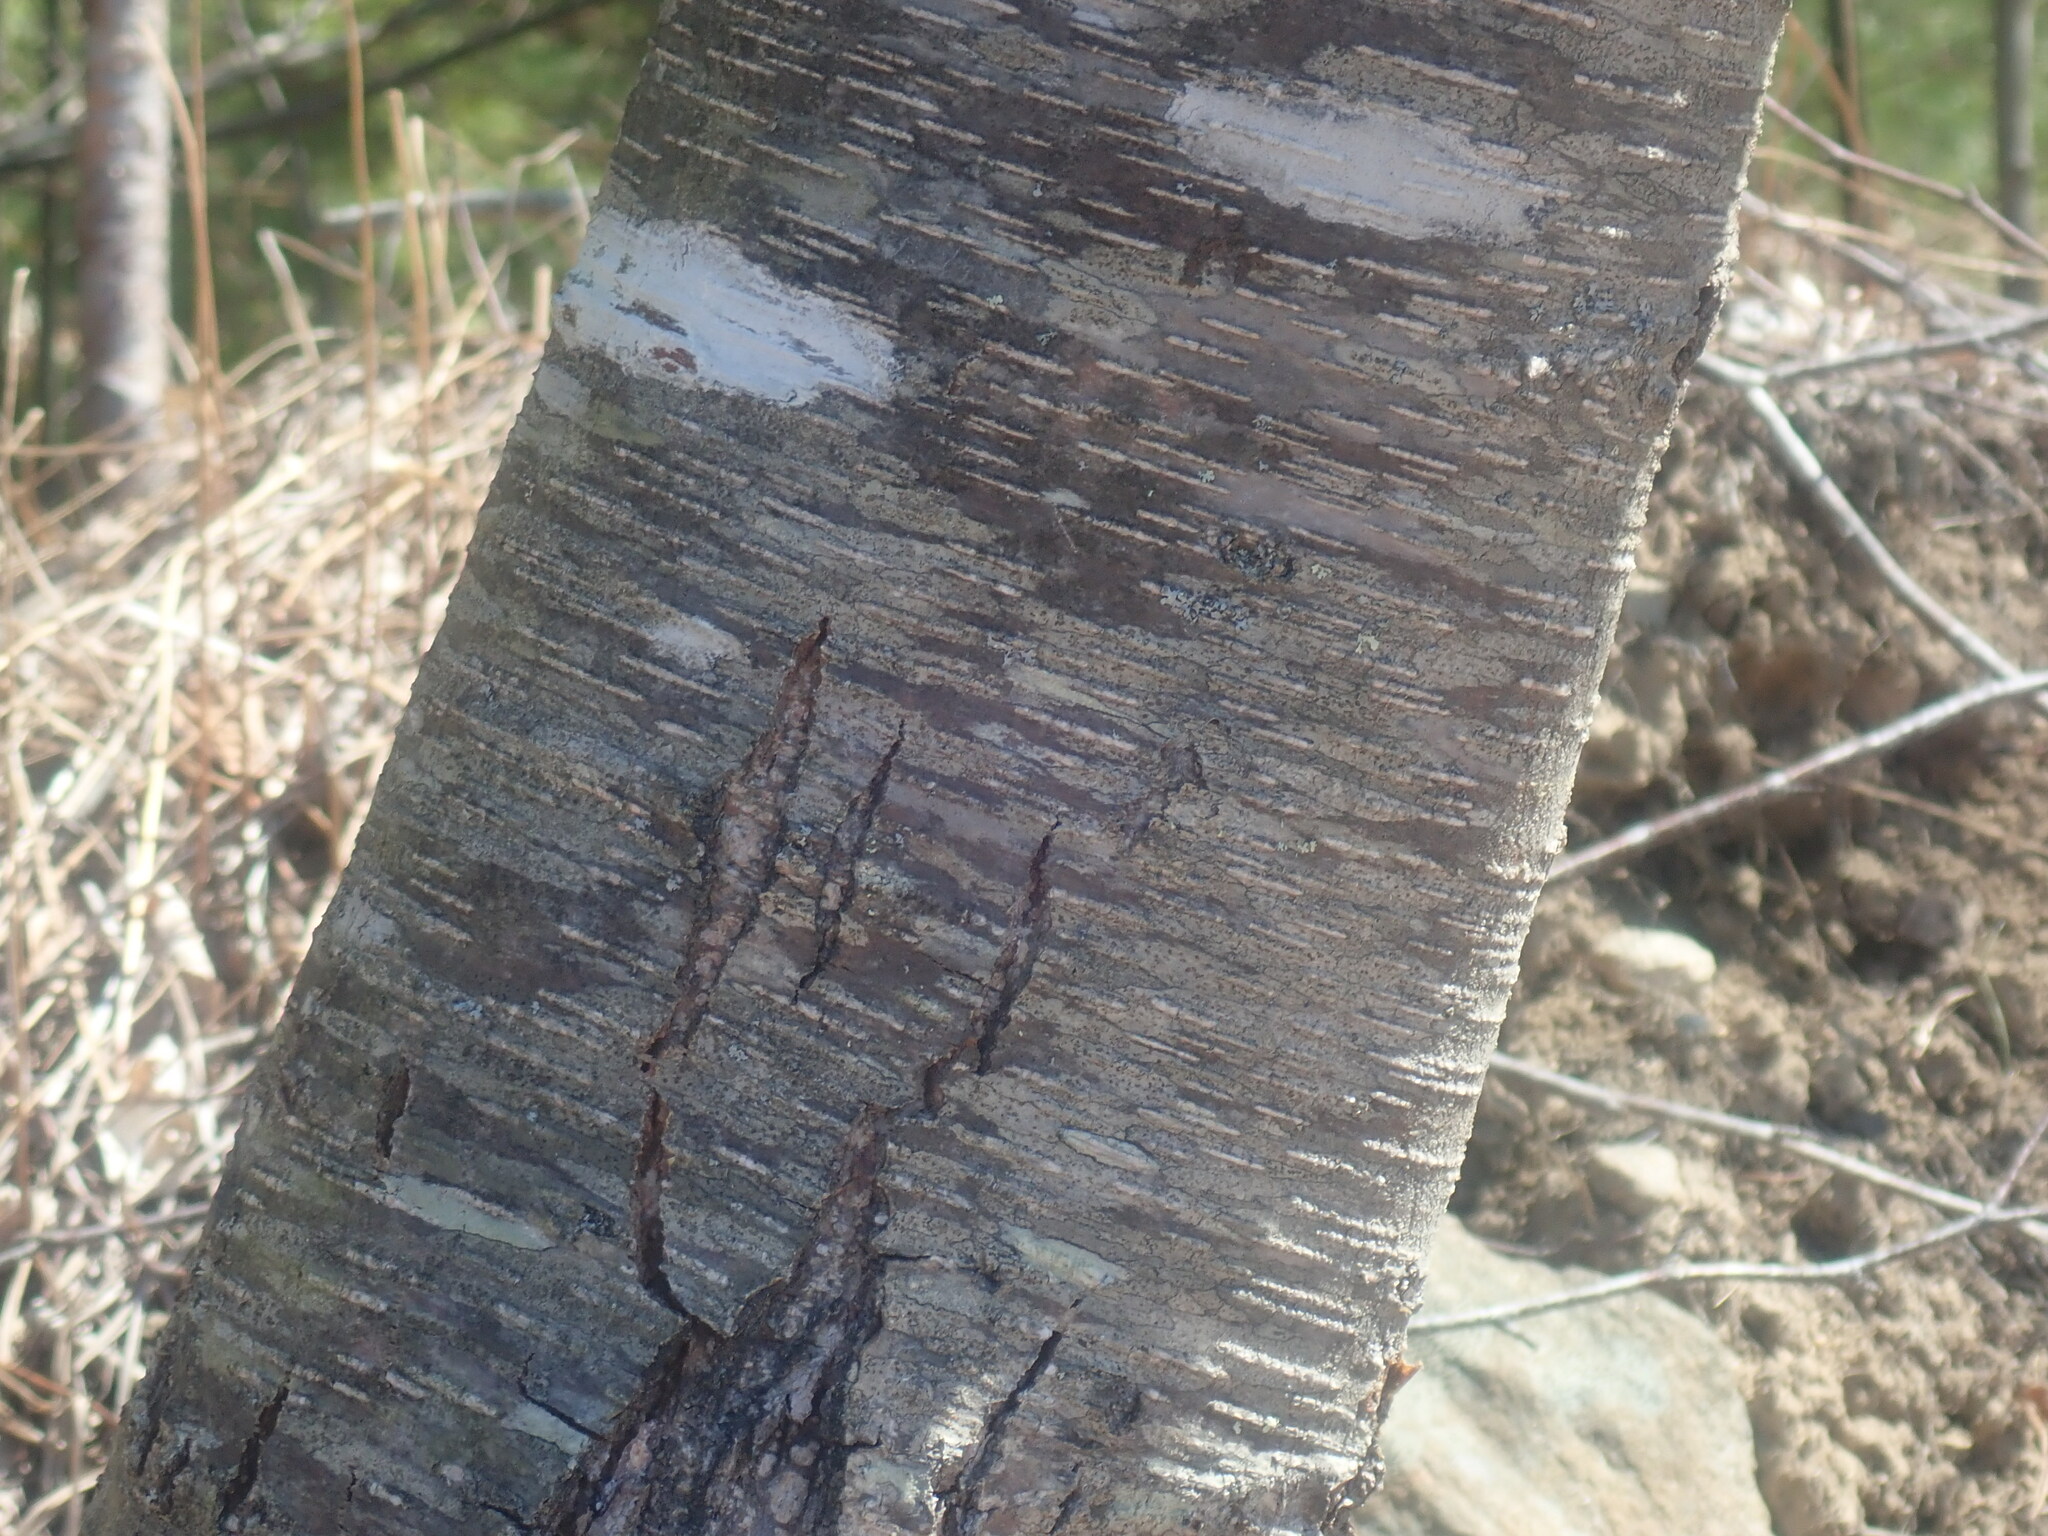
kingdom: Plantae
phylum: Tracheophyta
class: Magnoliopsida
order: Fagales
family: Betulaceae
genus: Betula
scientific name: Betula lenta
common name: Black birch
